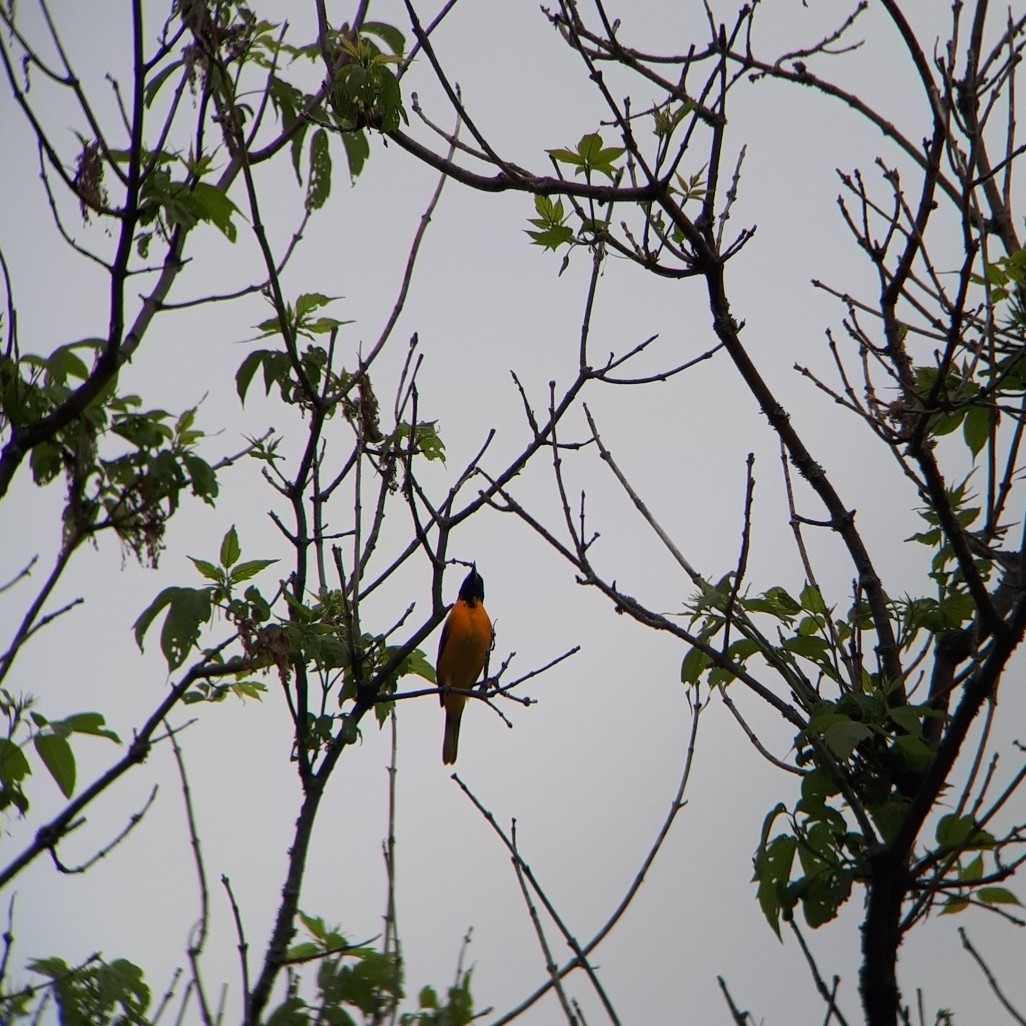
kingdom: Animalia
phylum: Chordata
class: Aves
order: Passeriformes
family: Icteridae
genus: Icterus
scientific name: Icterus galbula
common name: Baltimore oriole
